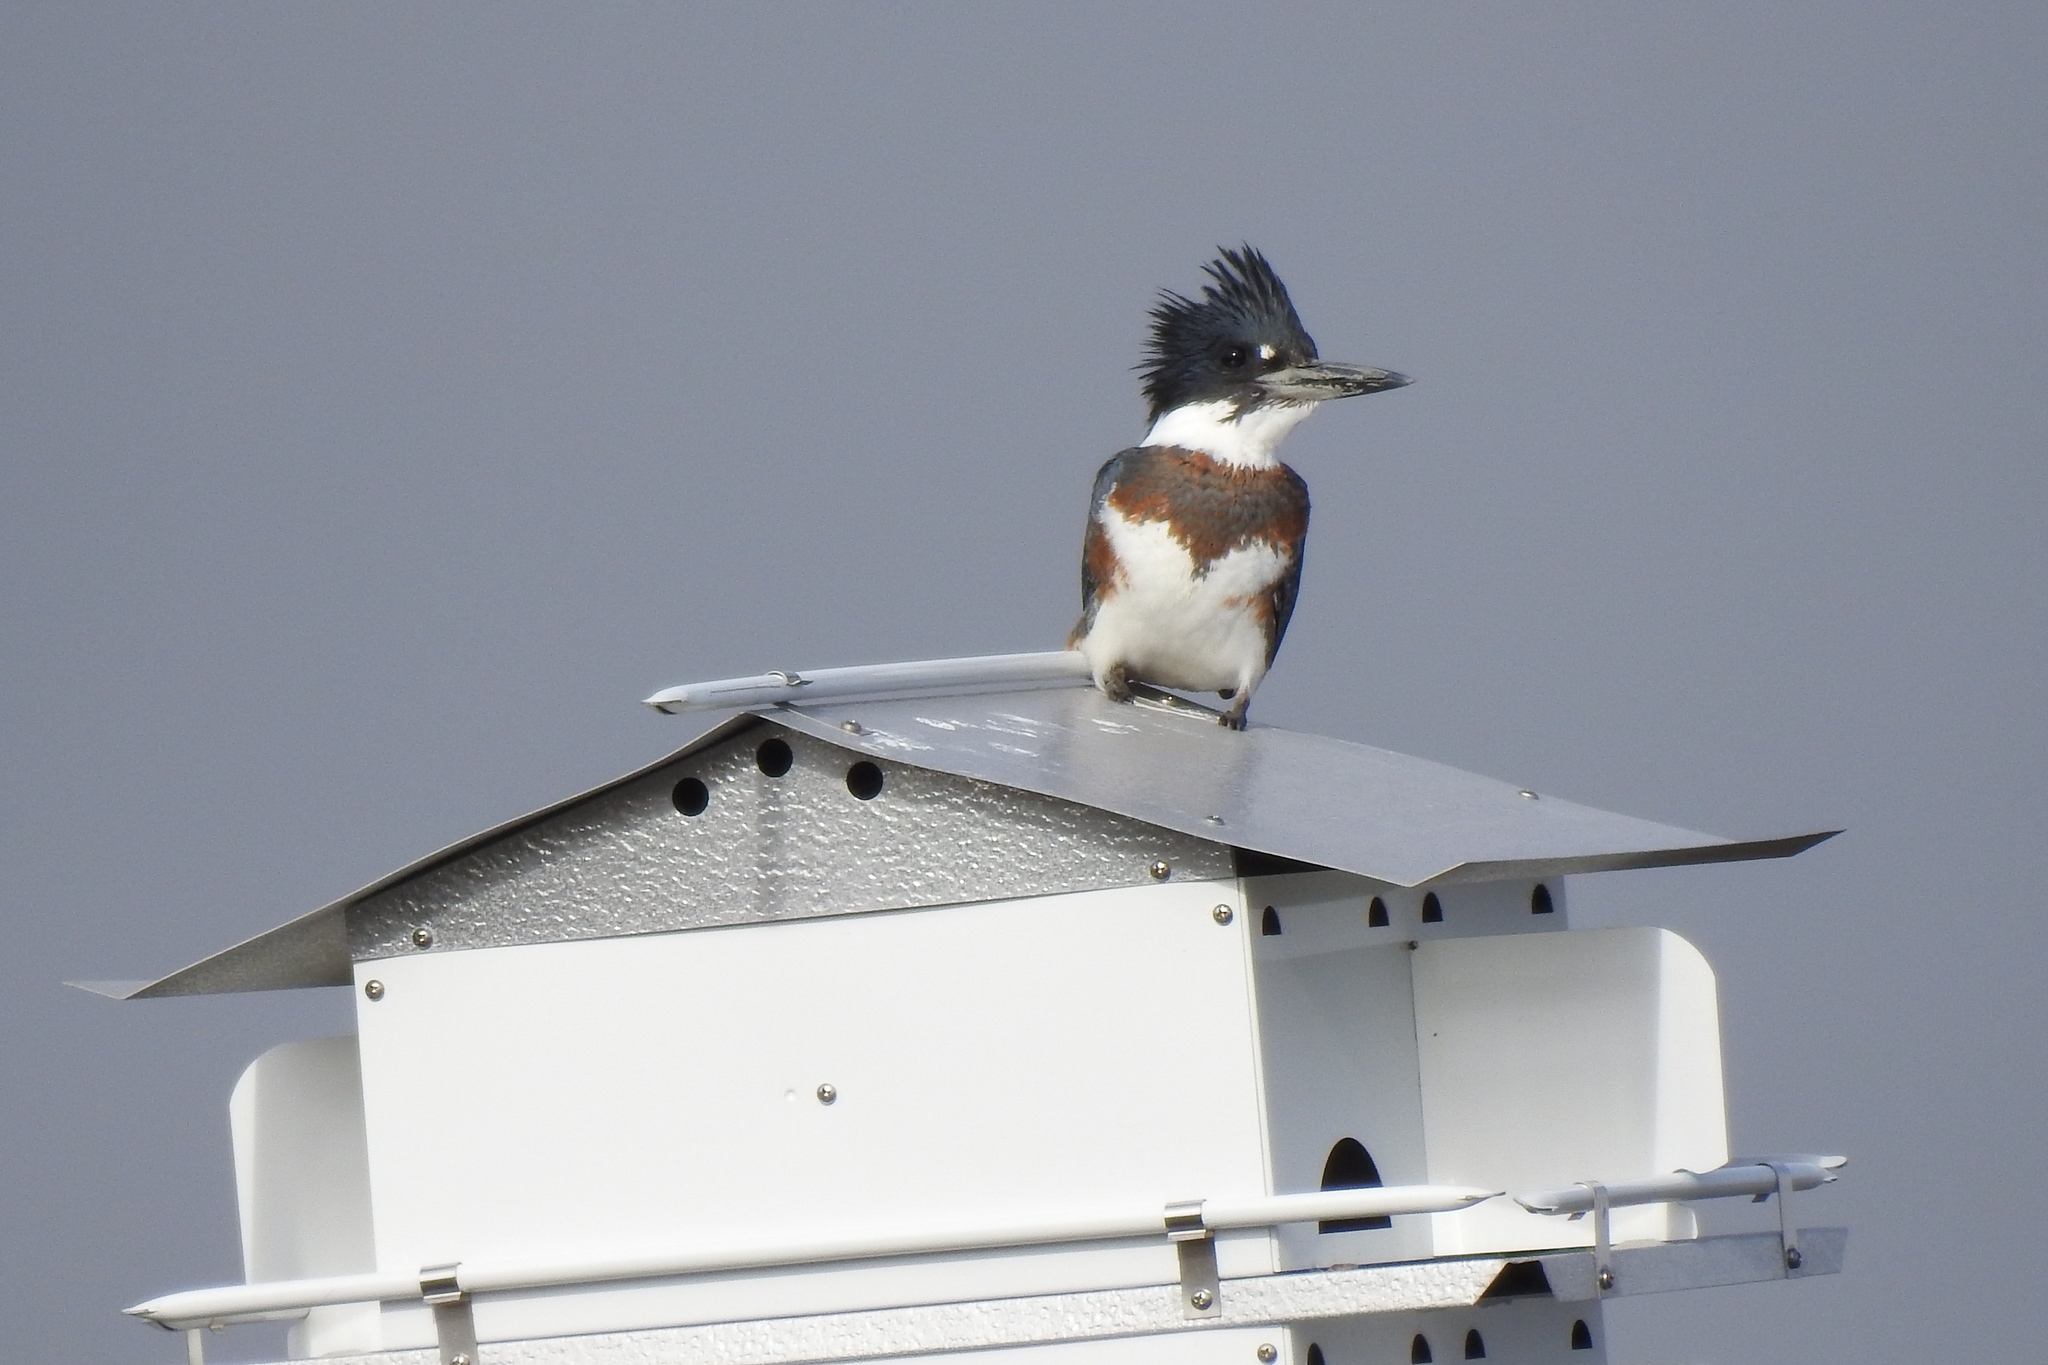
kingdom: Animalia
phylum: Chordata
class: Aves
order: Coraciiformes
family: Alcedinidae
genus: Megaceryle
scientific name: Megaceryle alcyon
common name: Belted kingfisher
